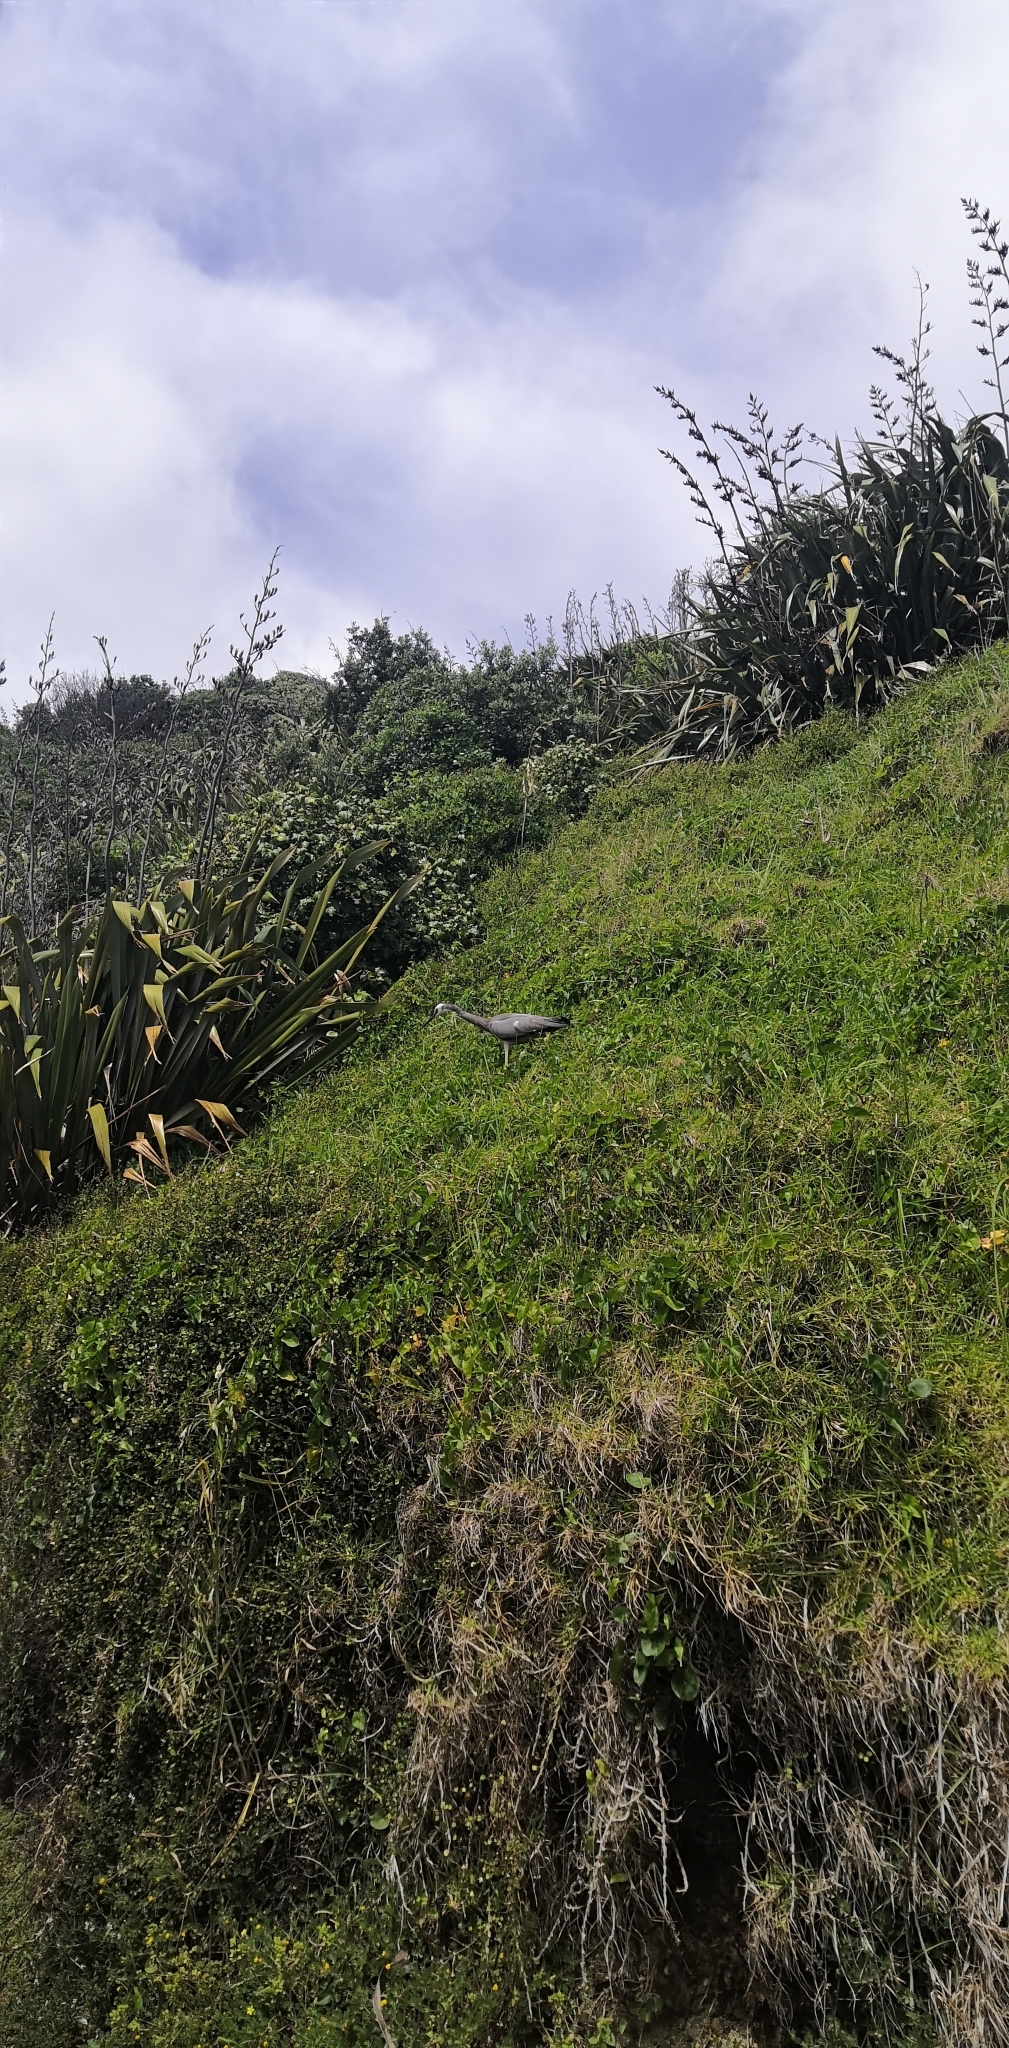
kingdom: Animalia
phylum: Chordata
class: Aves
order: Pelecaniformes
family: Ardeidae
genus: Egretta
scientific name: Egretta novaehollandiae
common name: White-faced heron
